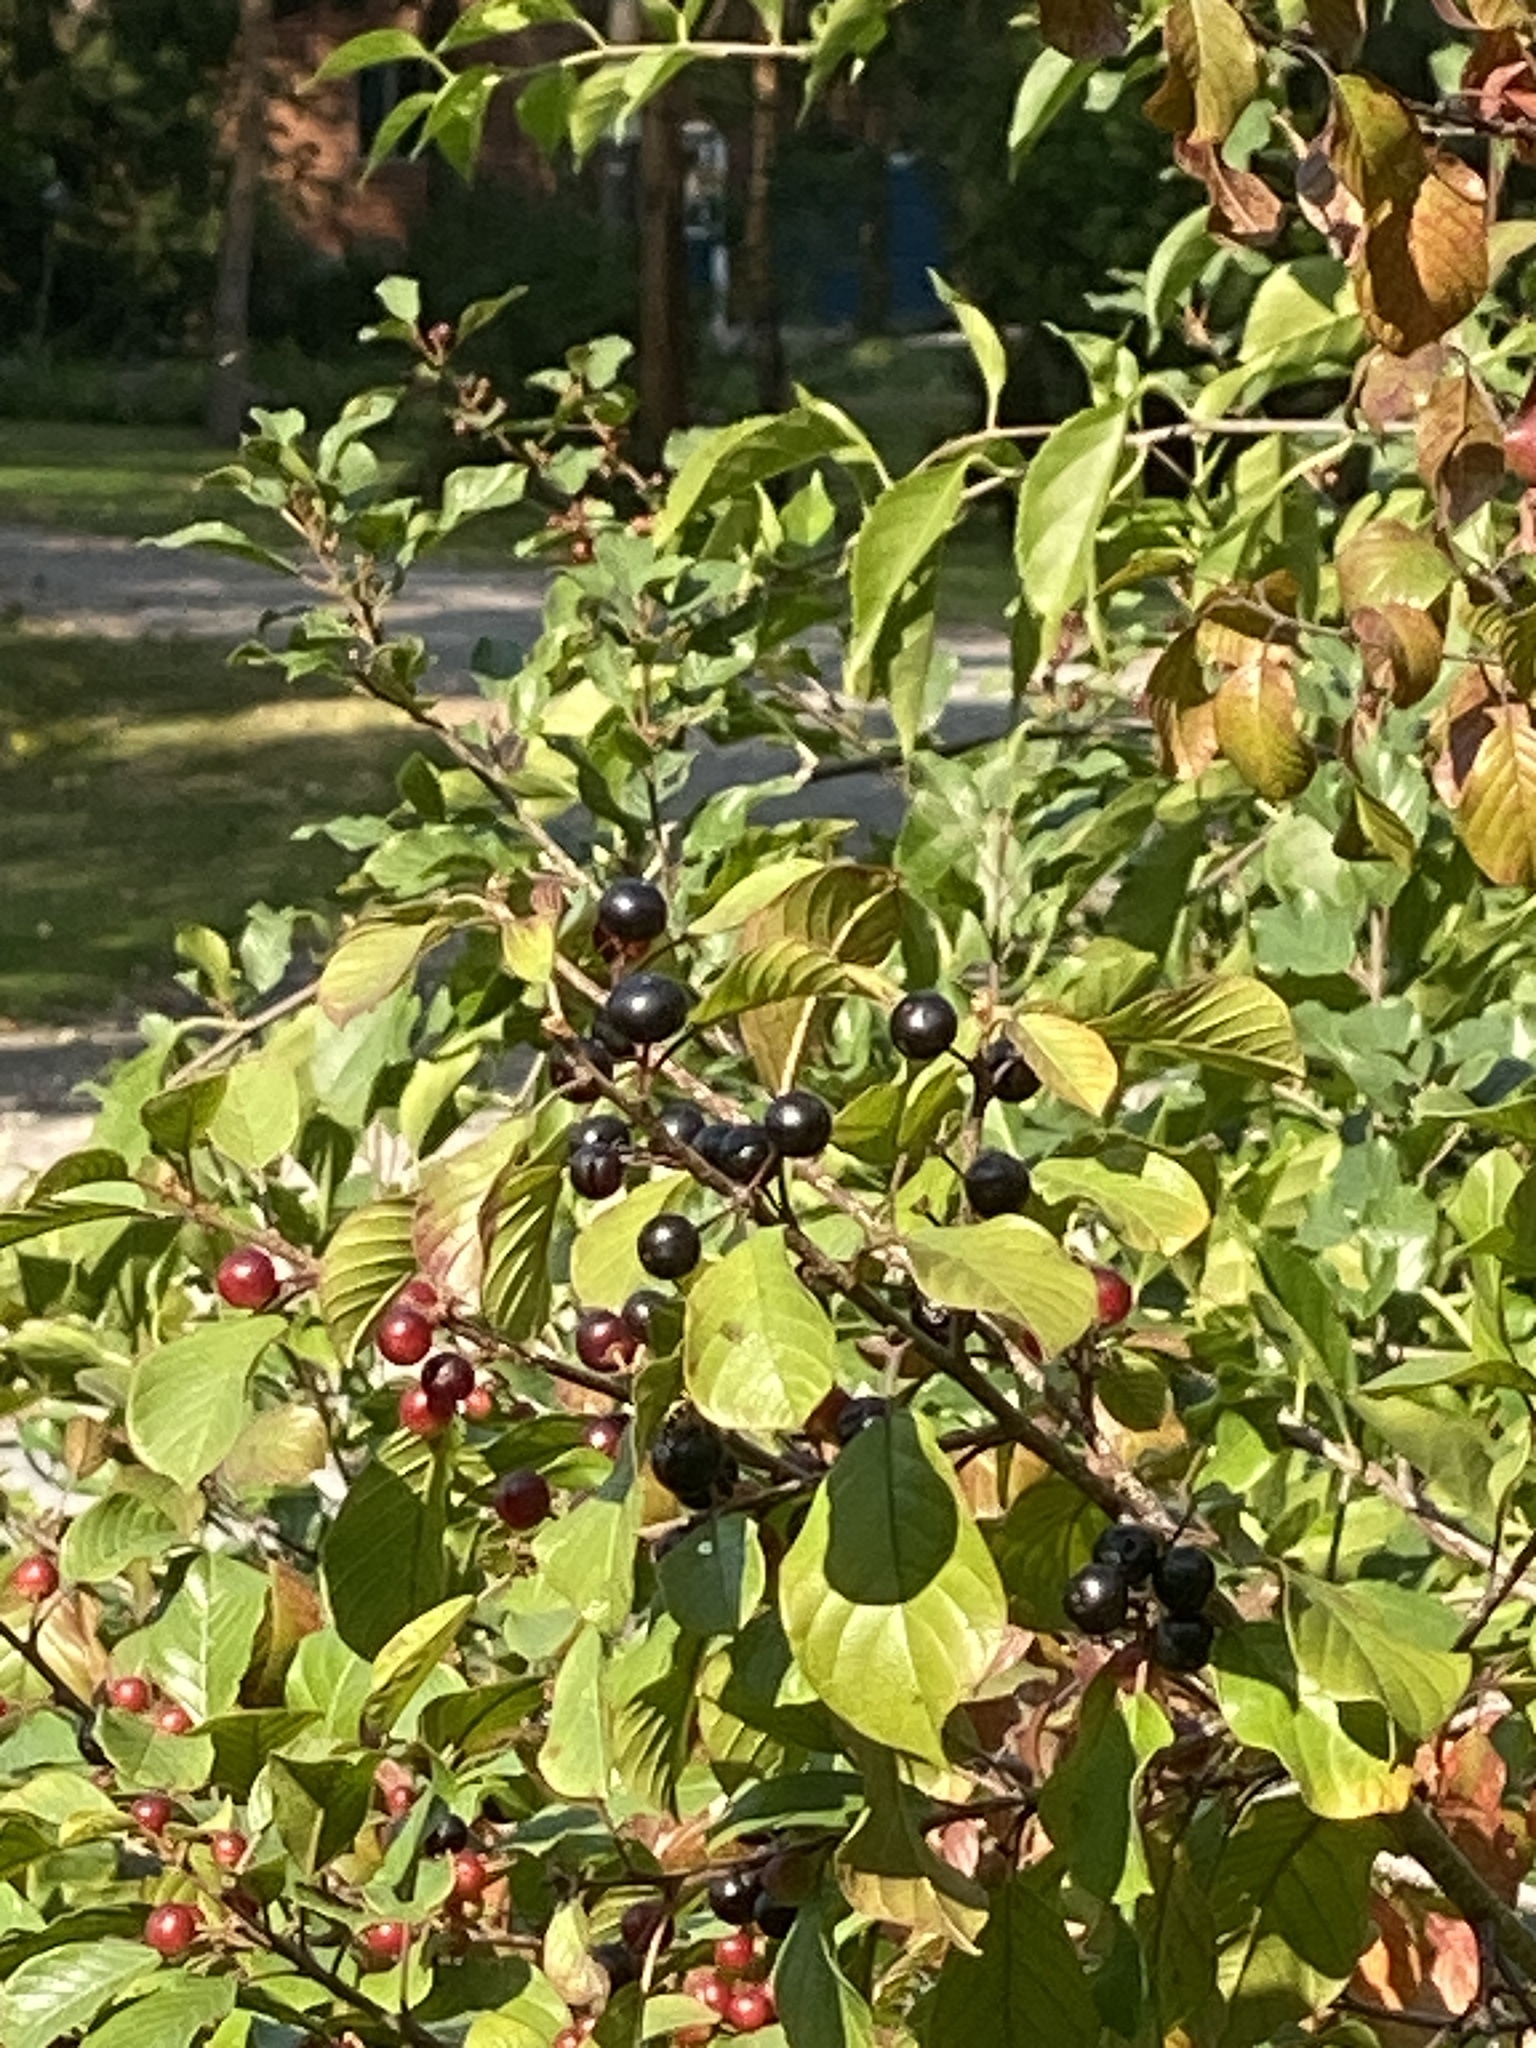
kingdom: Plantae
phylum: Tracheophyta
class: Magnoliopsida
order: Rosales
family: Rhamnaceae
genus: Frangula
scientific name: Frangula alnus
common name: Alder buckthorn
